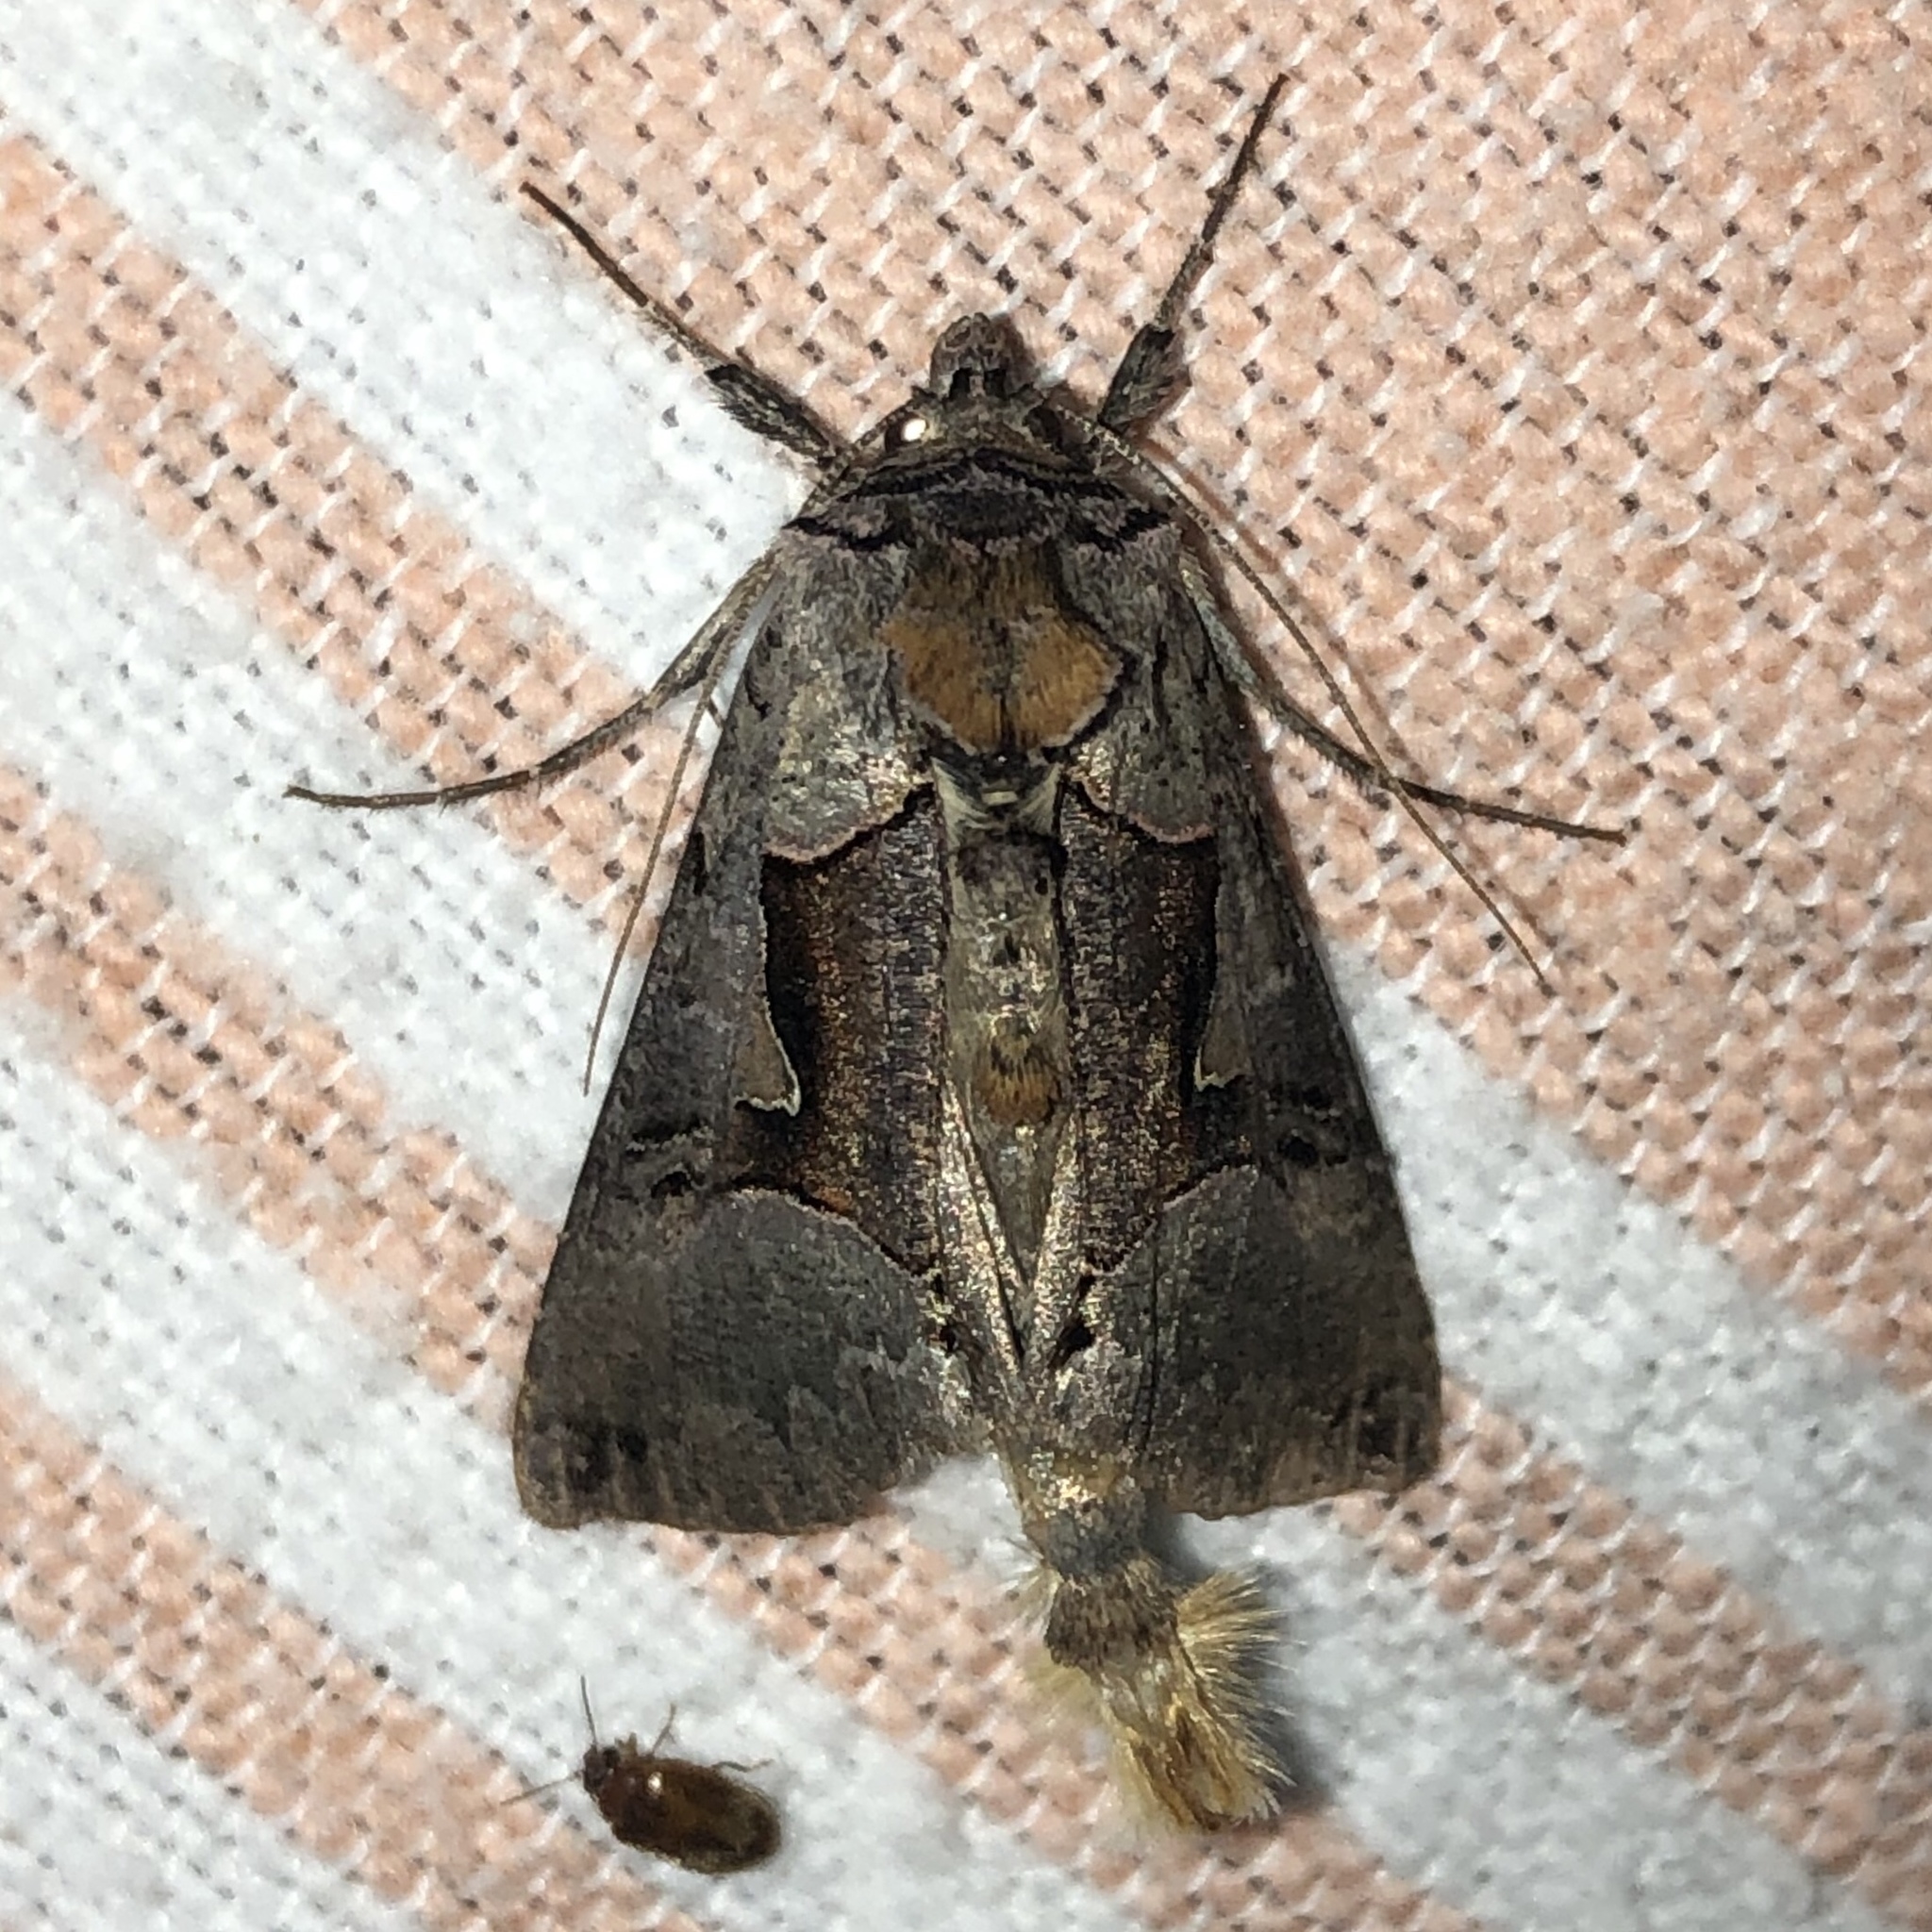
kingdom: Animalia
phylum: Arthropoda
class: Insecta
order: Lepidoptera
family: Noctuidae
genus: Autographa
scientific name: Autographa ampla
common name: Large looper moth
